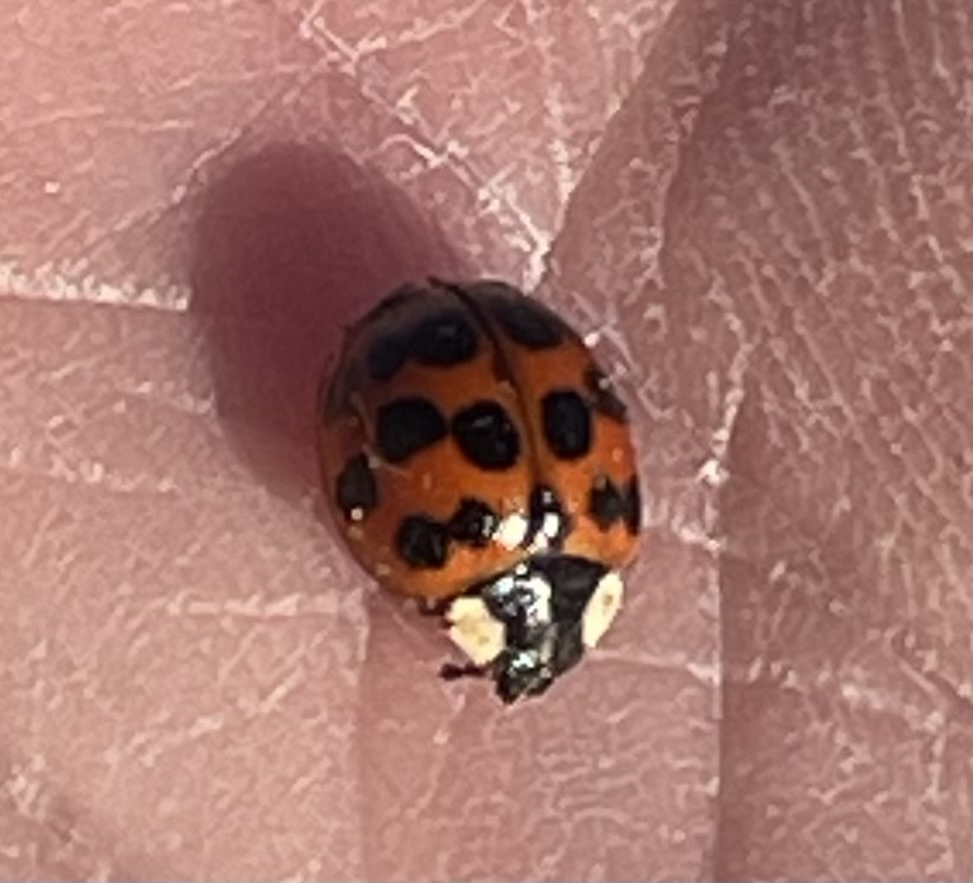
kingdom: Animalia
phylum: Arthropoda
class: Insecta
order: Coleoptera
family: Coccinellidae
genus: Harmonia
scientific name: Harmonia axyridis
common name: Harlequin ladybird
